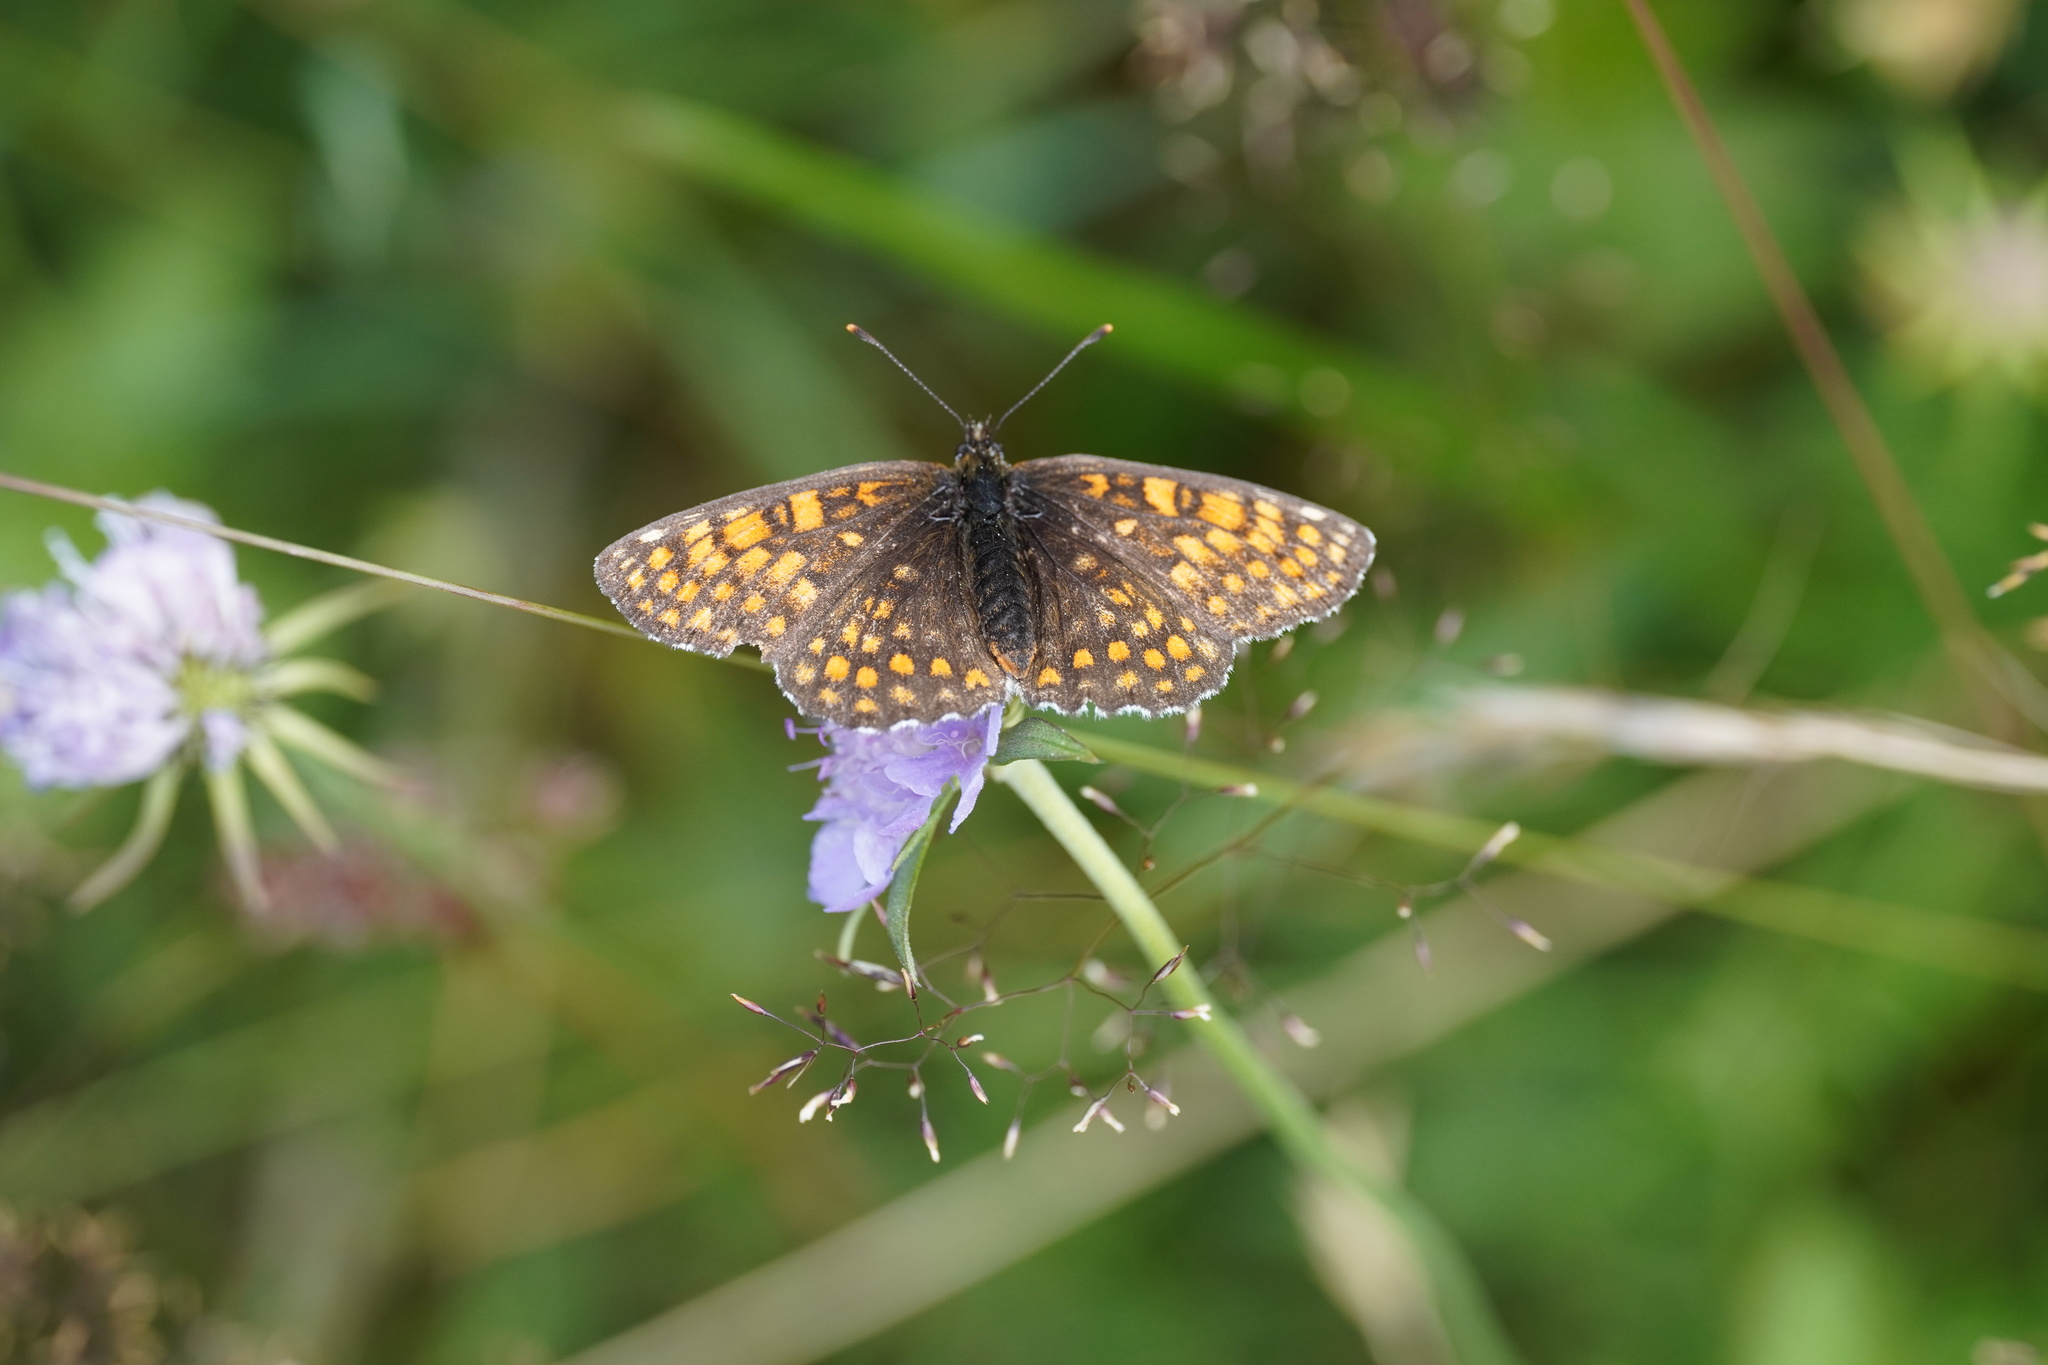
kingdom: Animalia
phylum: Arthropoda
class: Insecta
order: Lepidoptera
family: Nymphalidae
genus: Melitaea
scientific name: Melitaea athalia
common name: Heath fritillary
